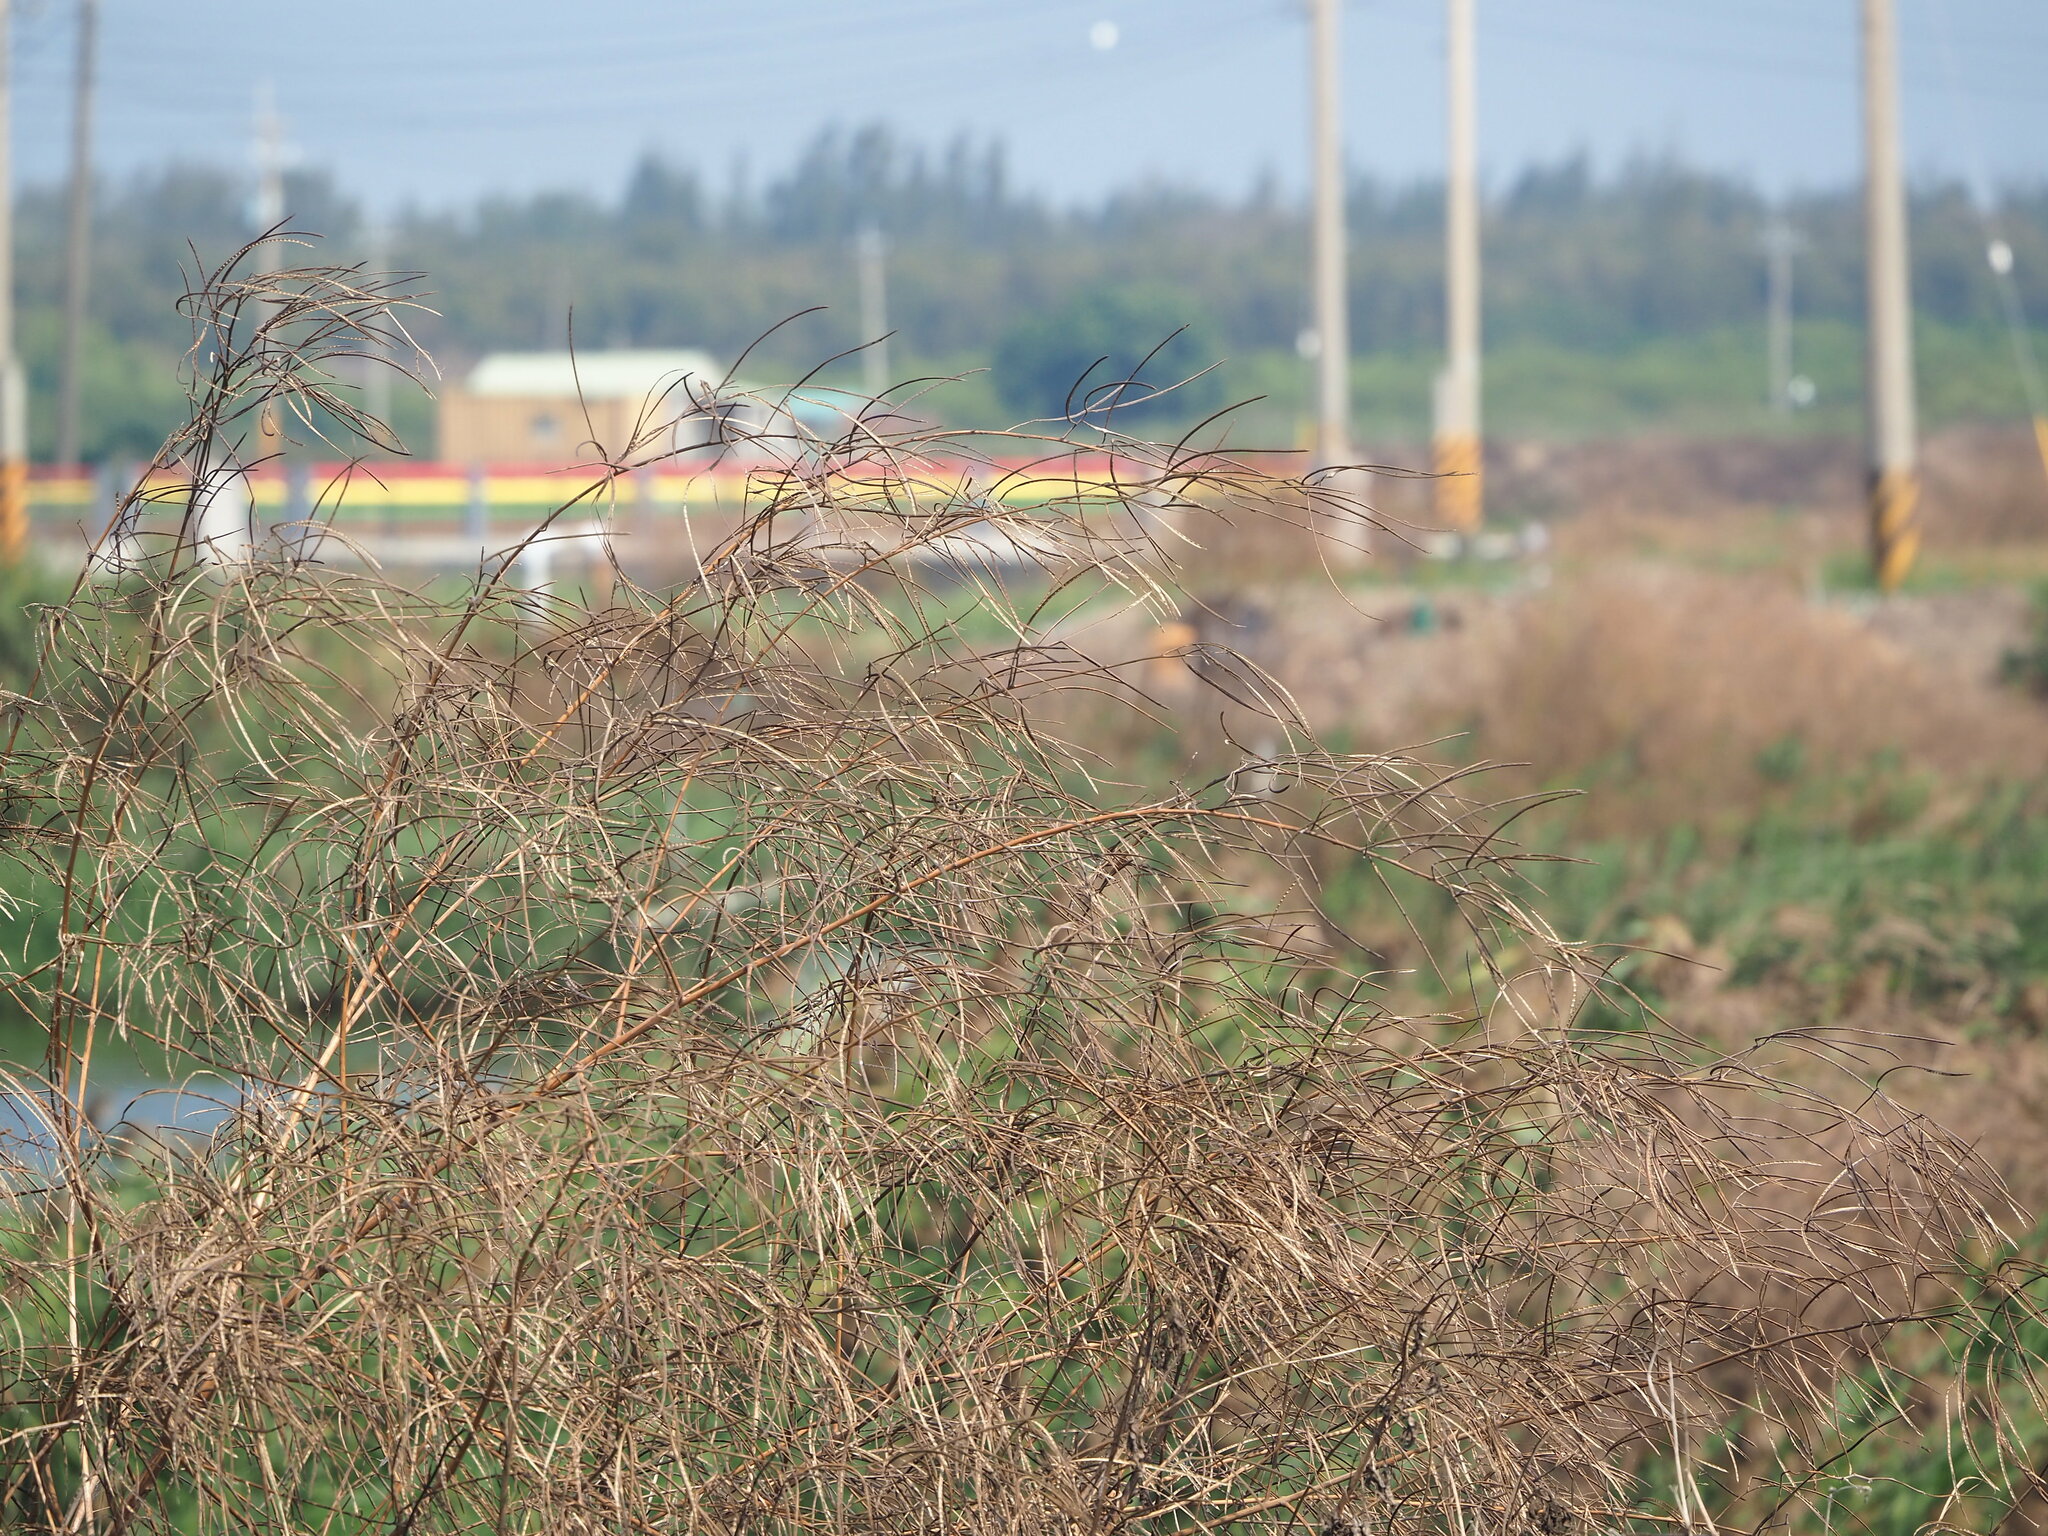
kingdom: Plantae
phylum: Tracheophyta
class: Magnoliopsida
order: Fabales
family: Fabaceae
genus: Sesbania
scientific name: Sesbania cannabina
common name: Canicha
